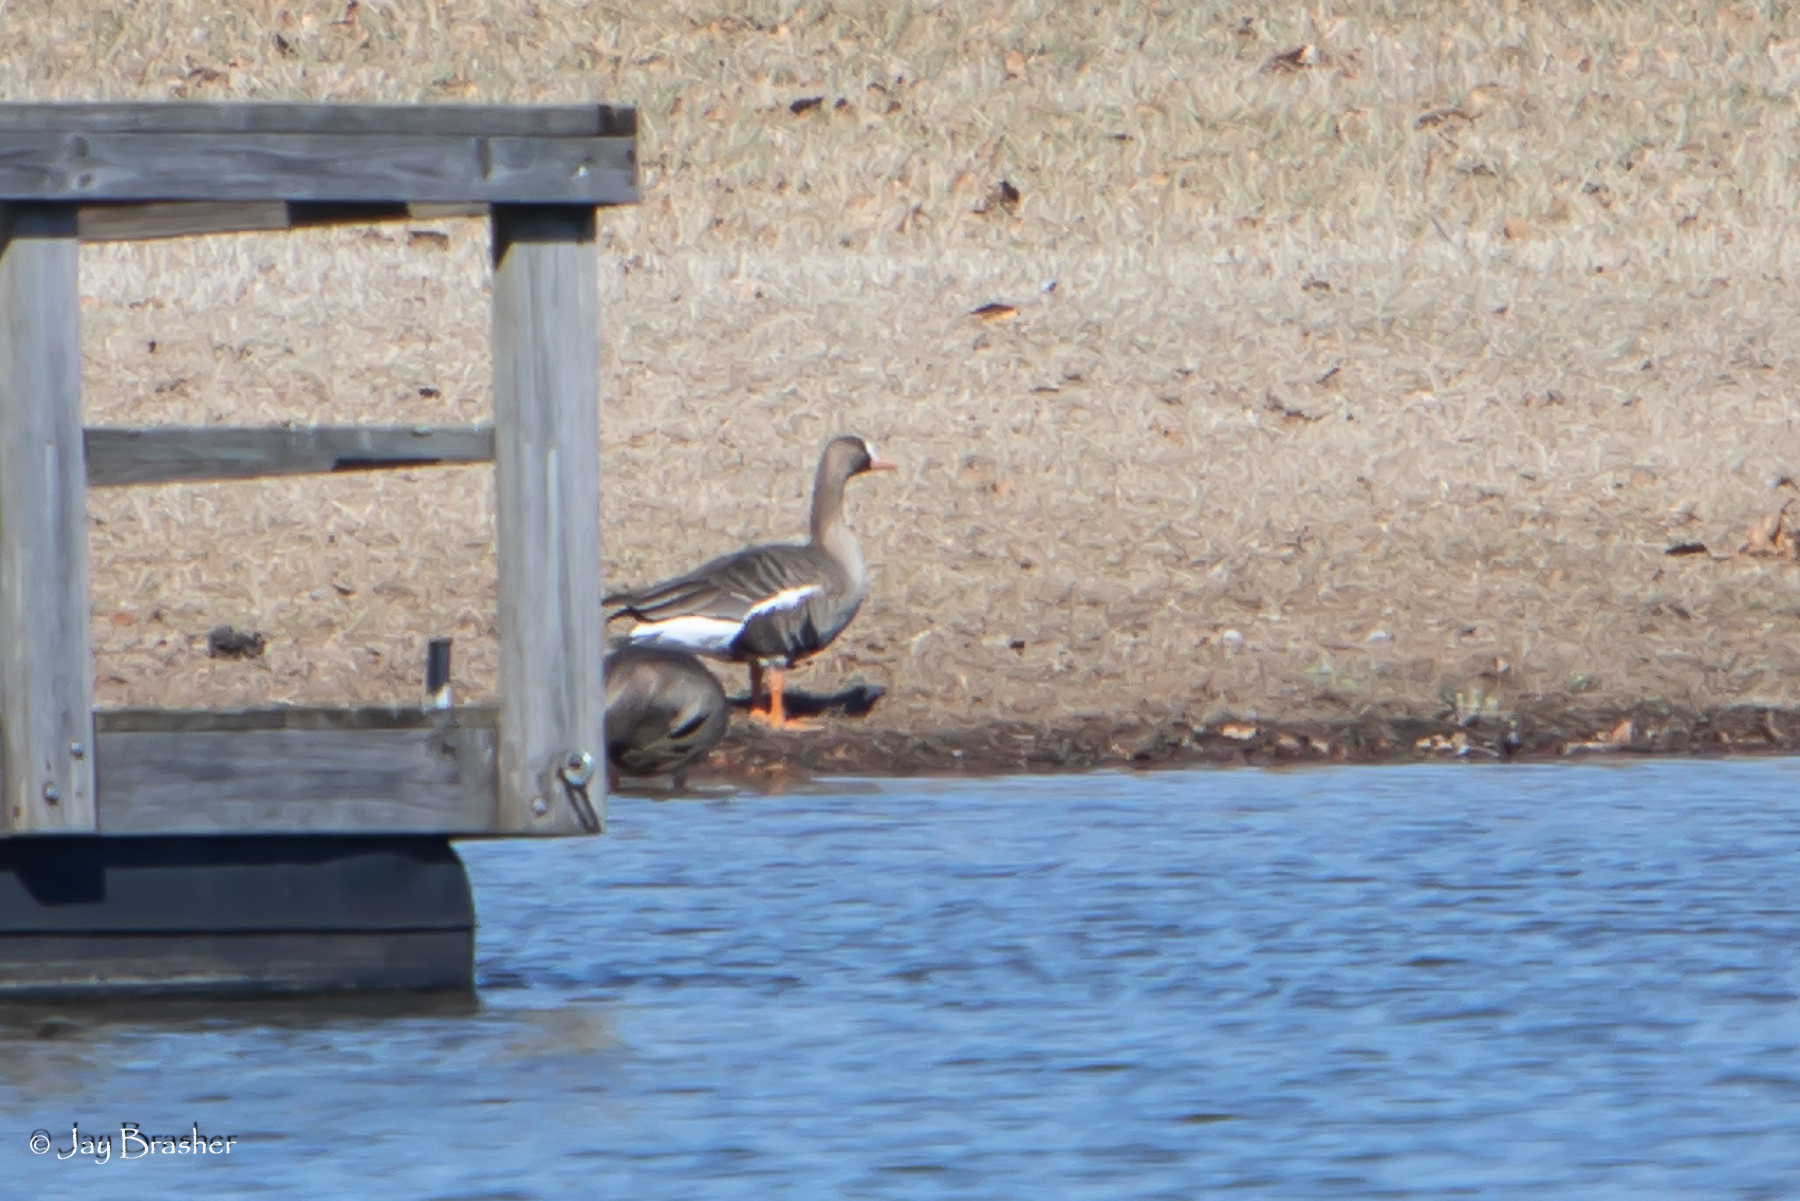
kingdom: Animalia
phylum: Chordata
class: Aves
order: Anseriformes
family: Anatidae
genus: Anser
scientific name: Anser albifrons
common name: Greater white-fronted goose
